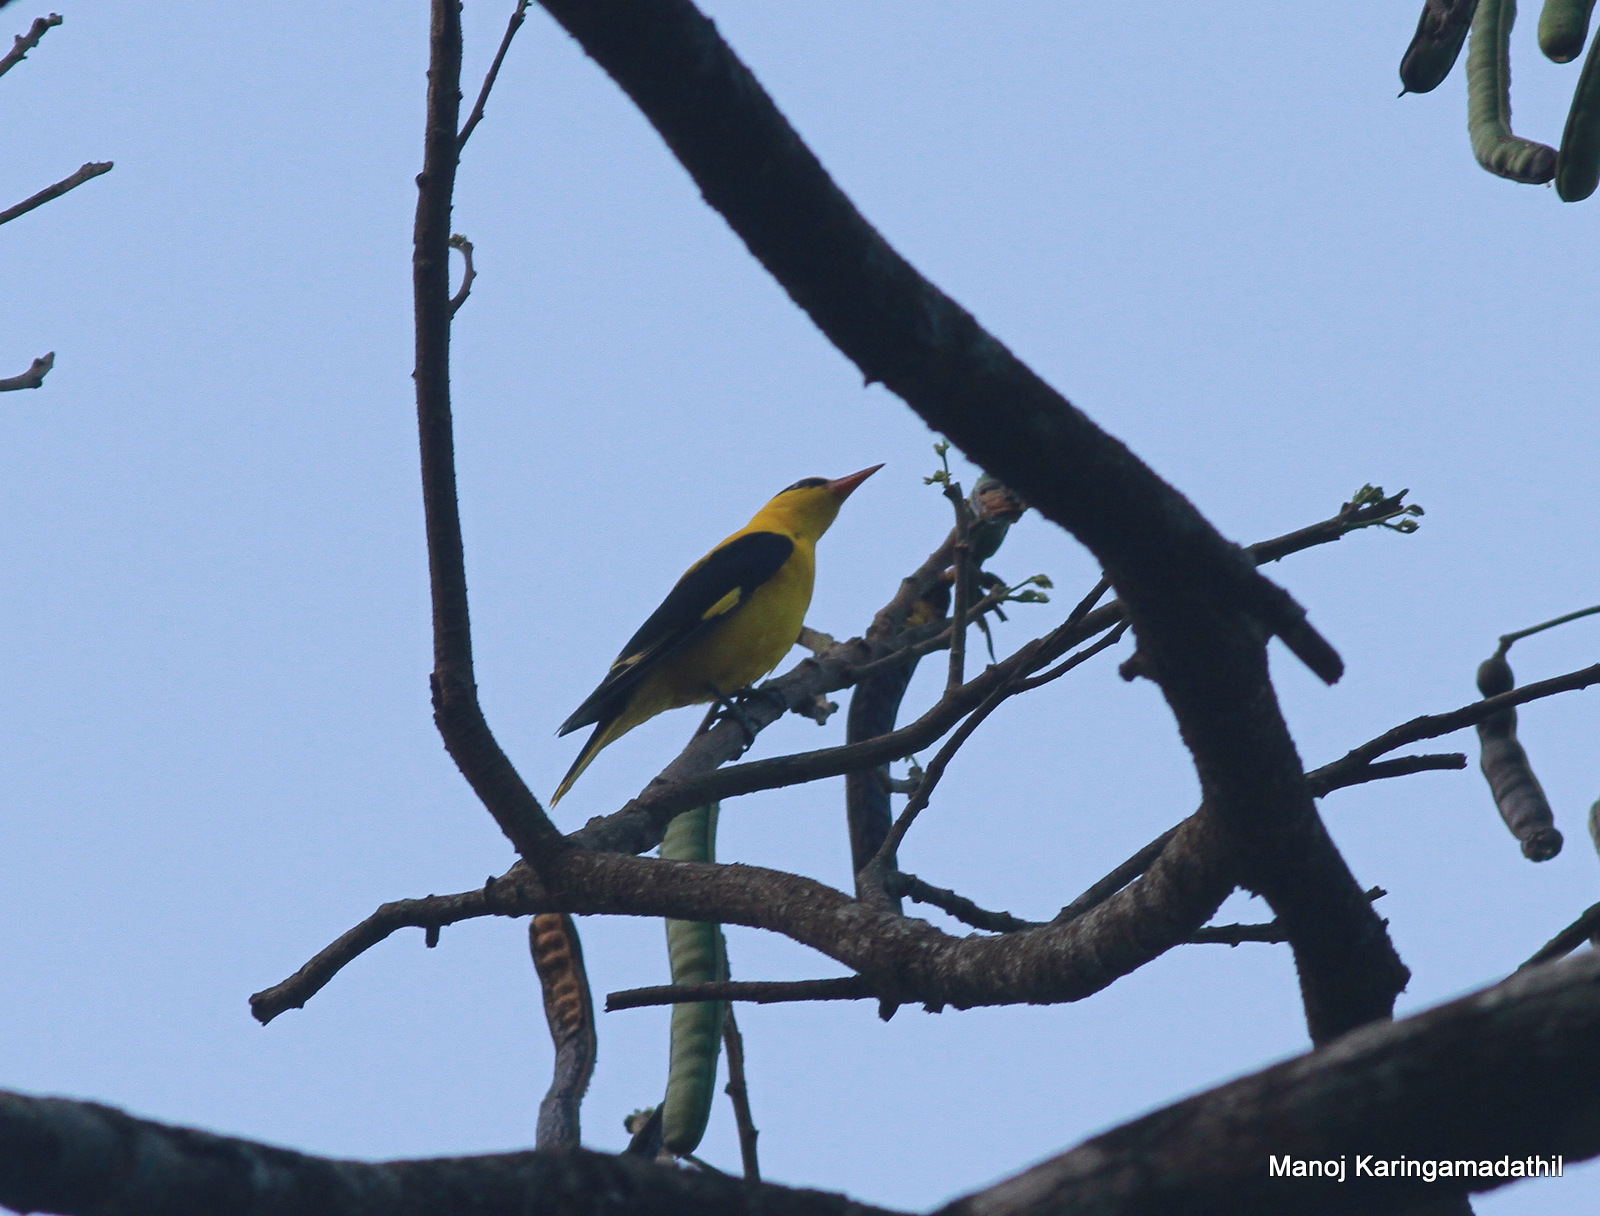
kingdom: Animalia
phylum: Chordata
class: Aves
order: Passeriformes
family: Oriolidae
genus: Oriolus
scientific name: Oriolus kundoo
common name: Indian golden oriole
